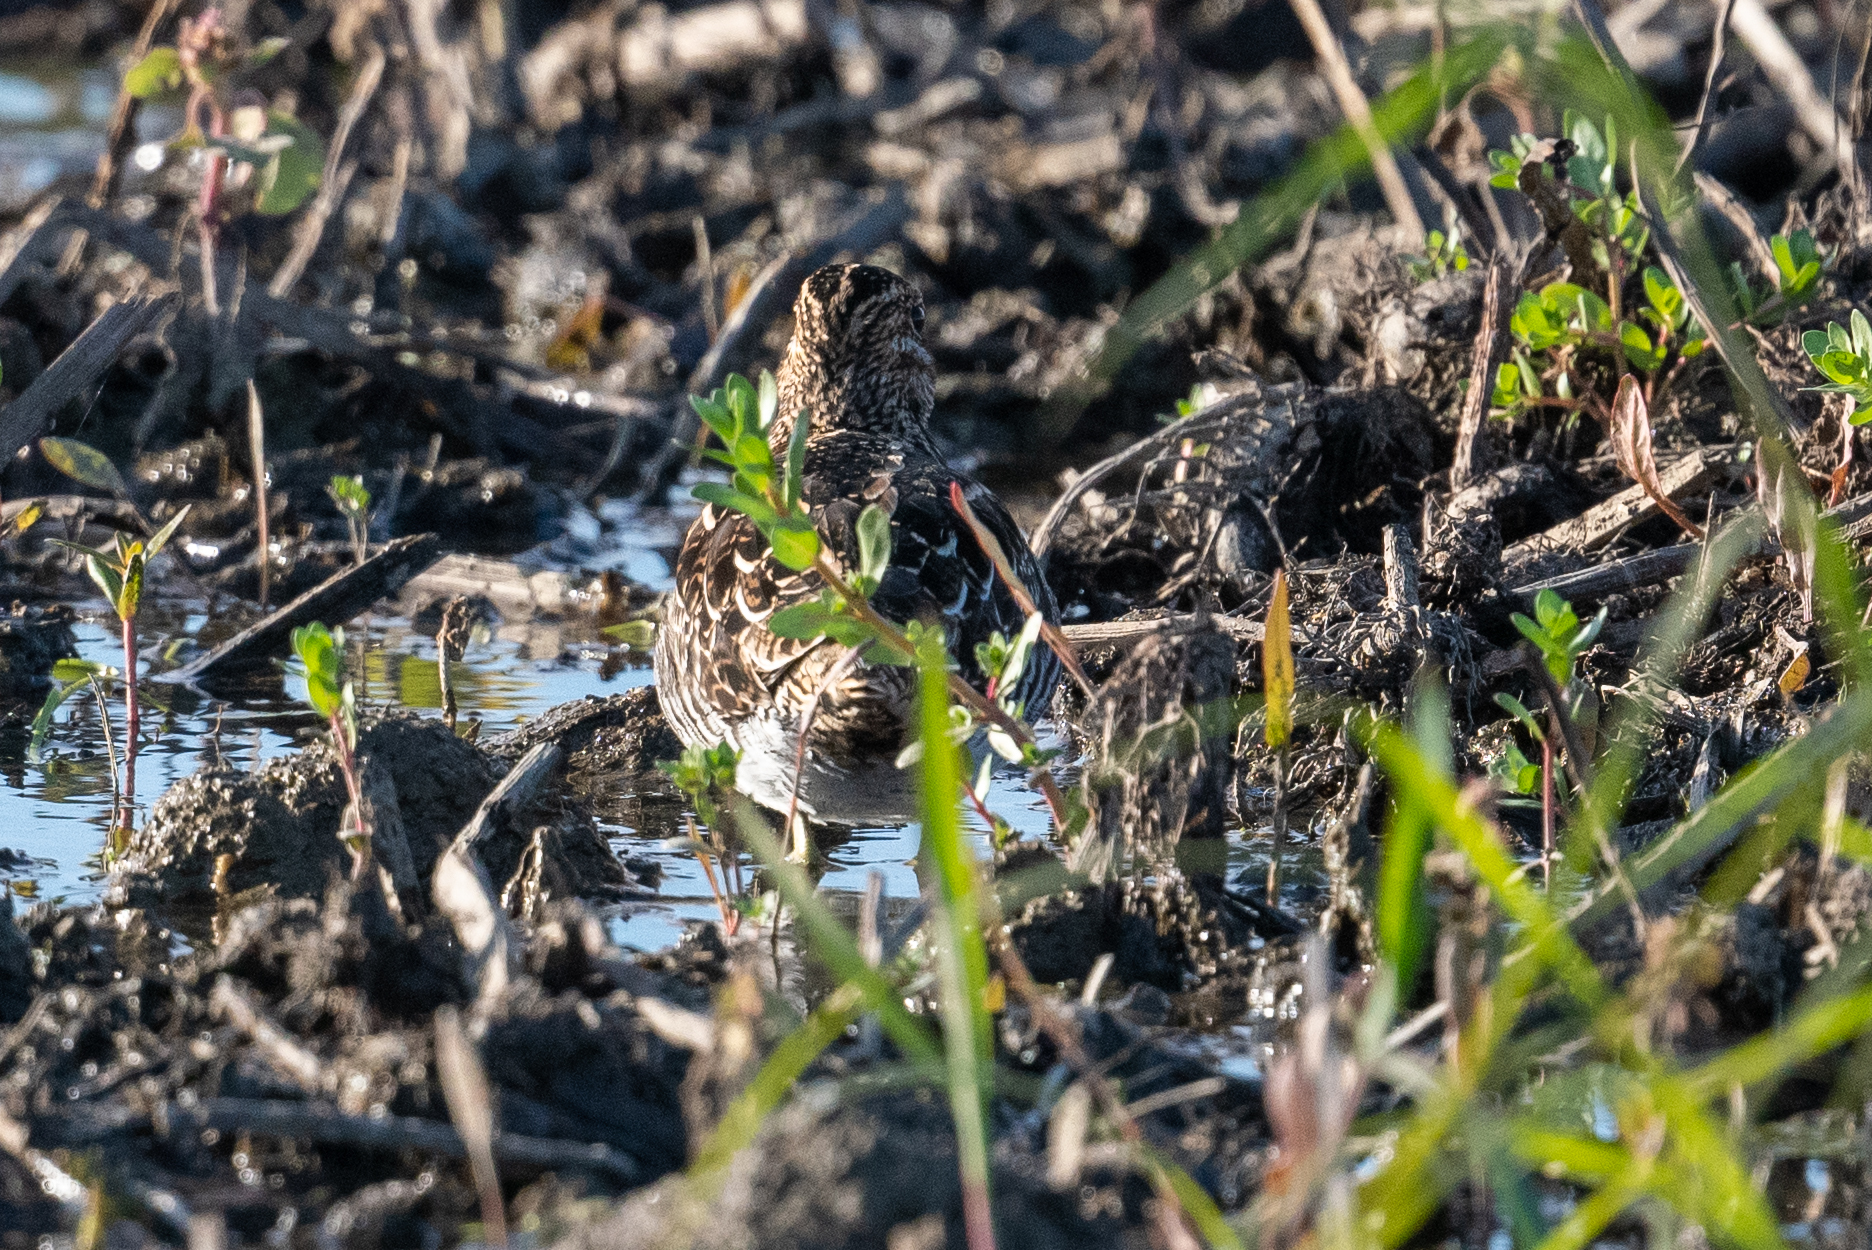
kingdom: Animalia
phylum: Chordata
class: Aves
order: Charadriiformes
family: Scolopacidae
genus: Gallinago
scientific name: Gallinago delicata
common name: Wilson's snipe
